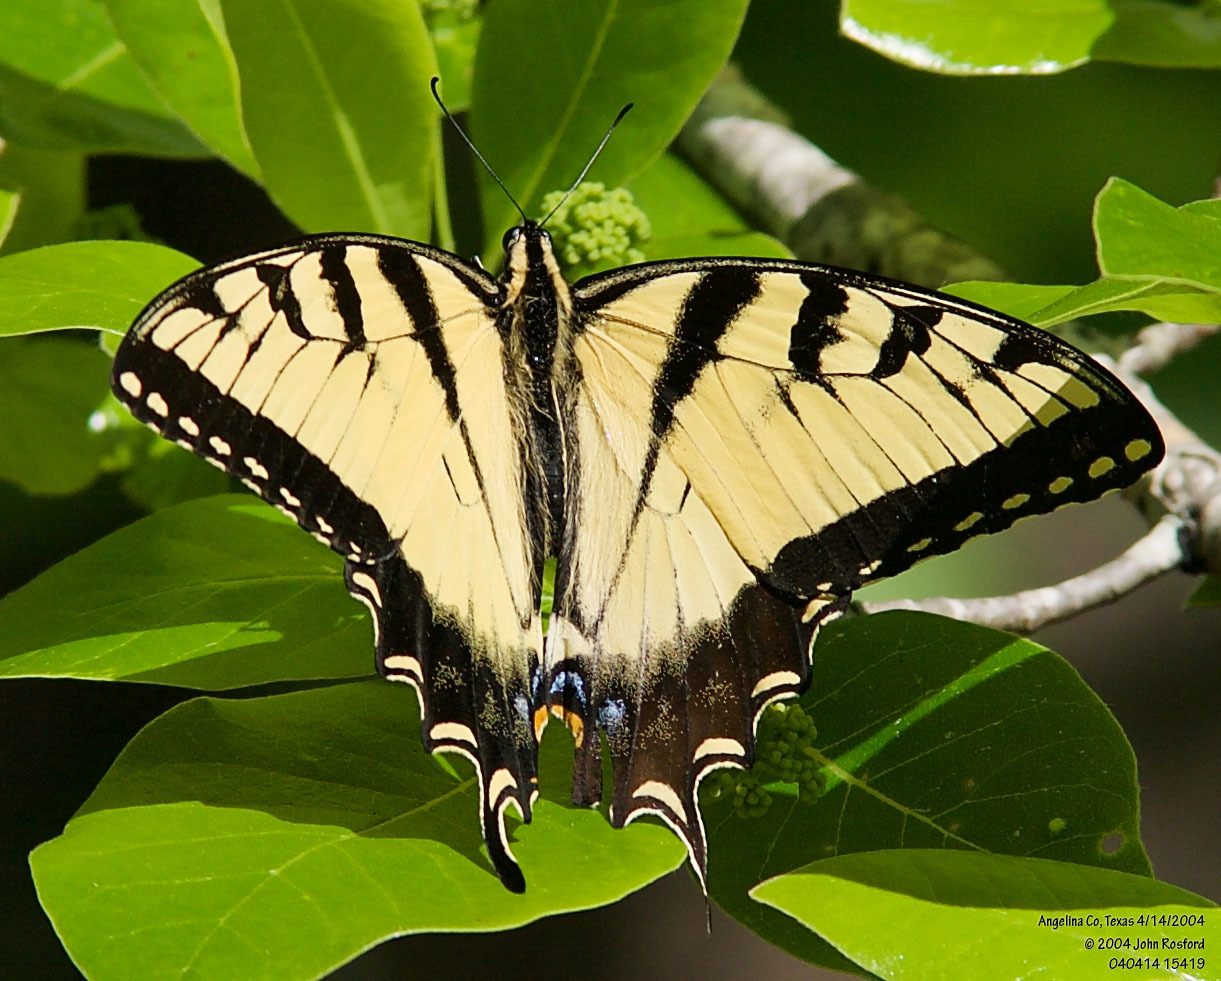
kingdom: Animalia
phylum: Arthropoda
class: Insecta
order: Lepidoptera
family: Papilionidae
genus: Papilio
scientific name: Papilio glaucus
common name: Tiger swallowtail
